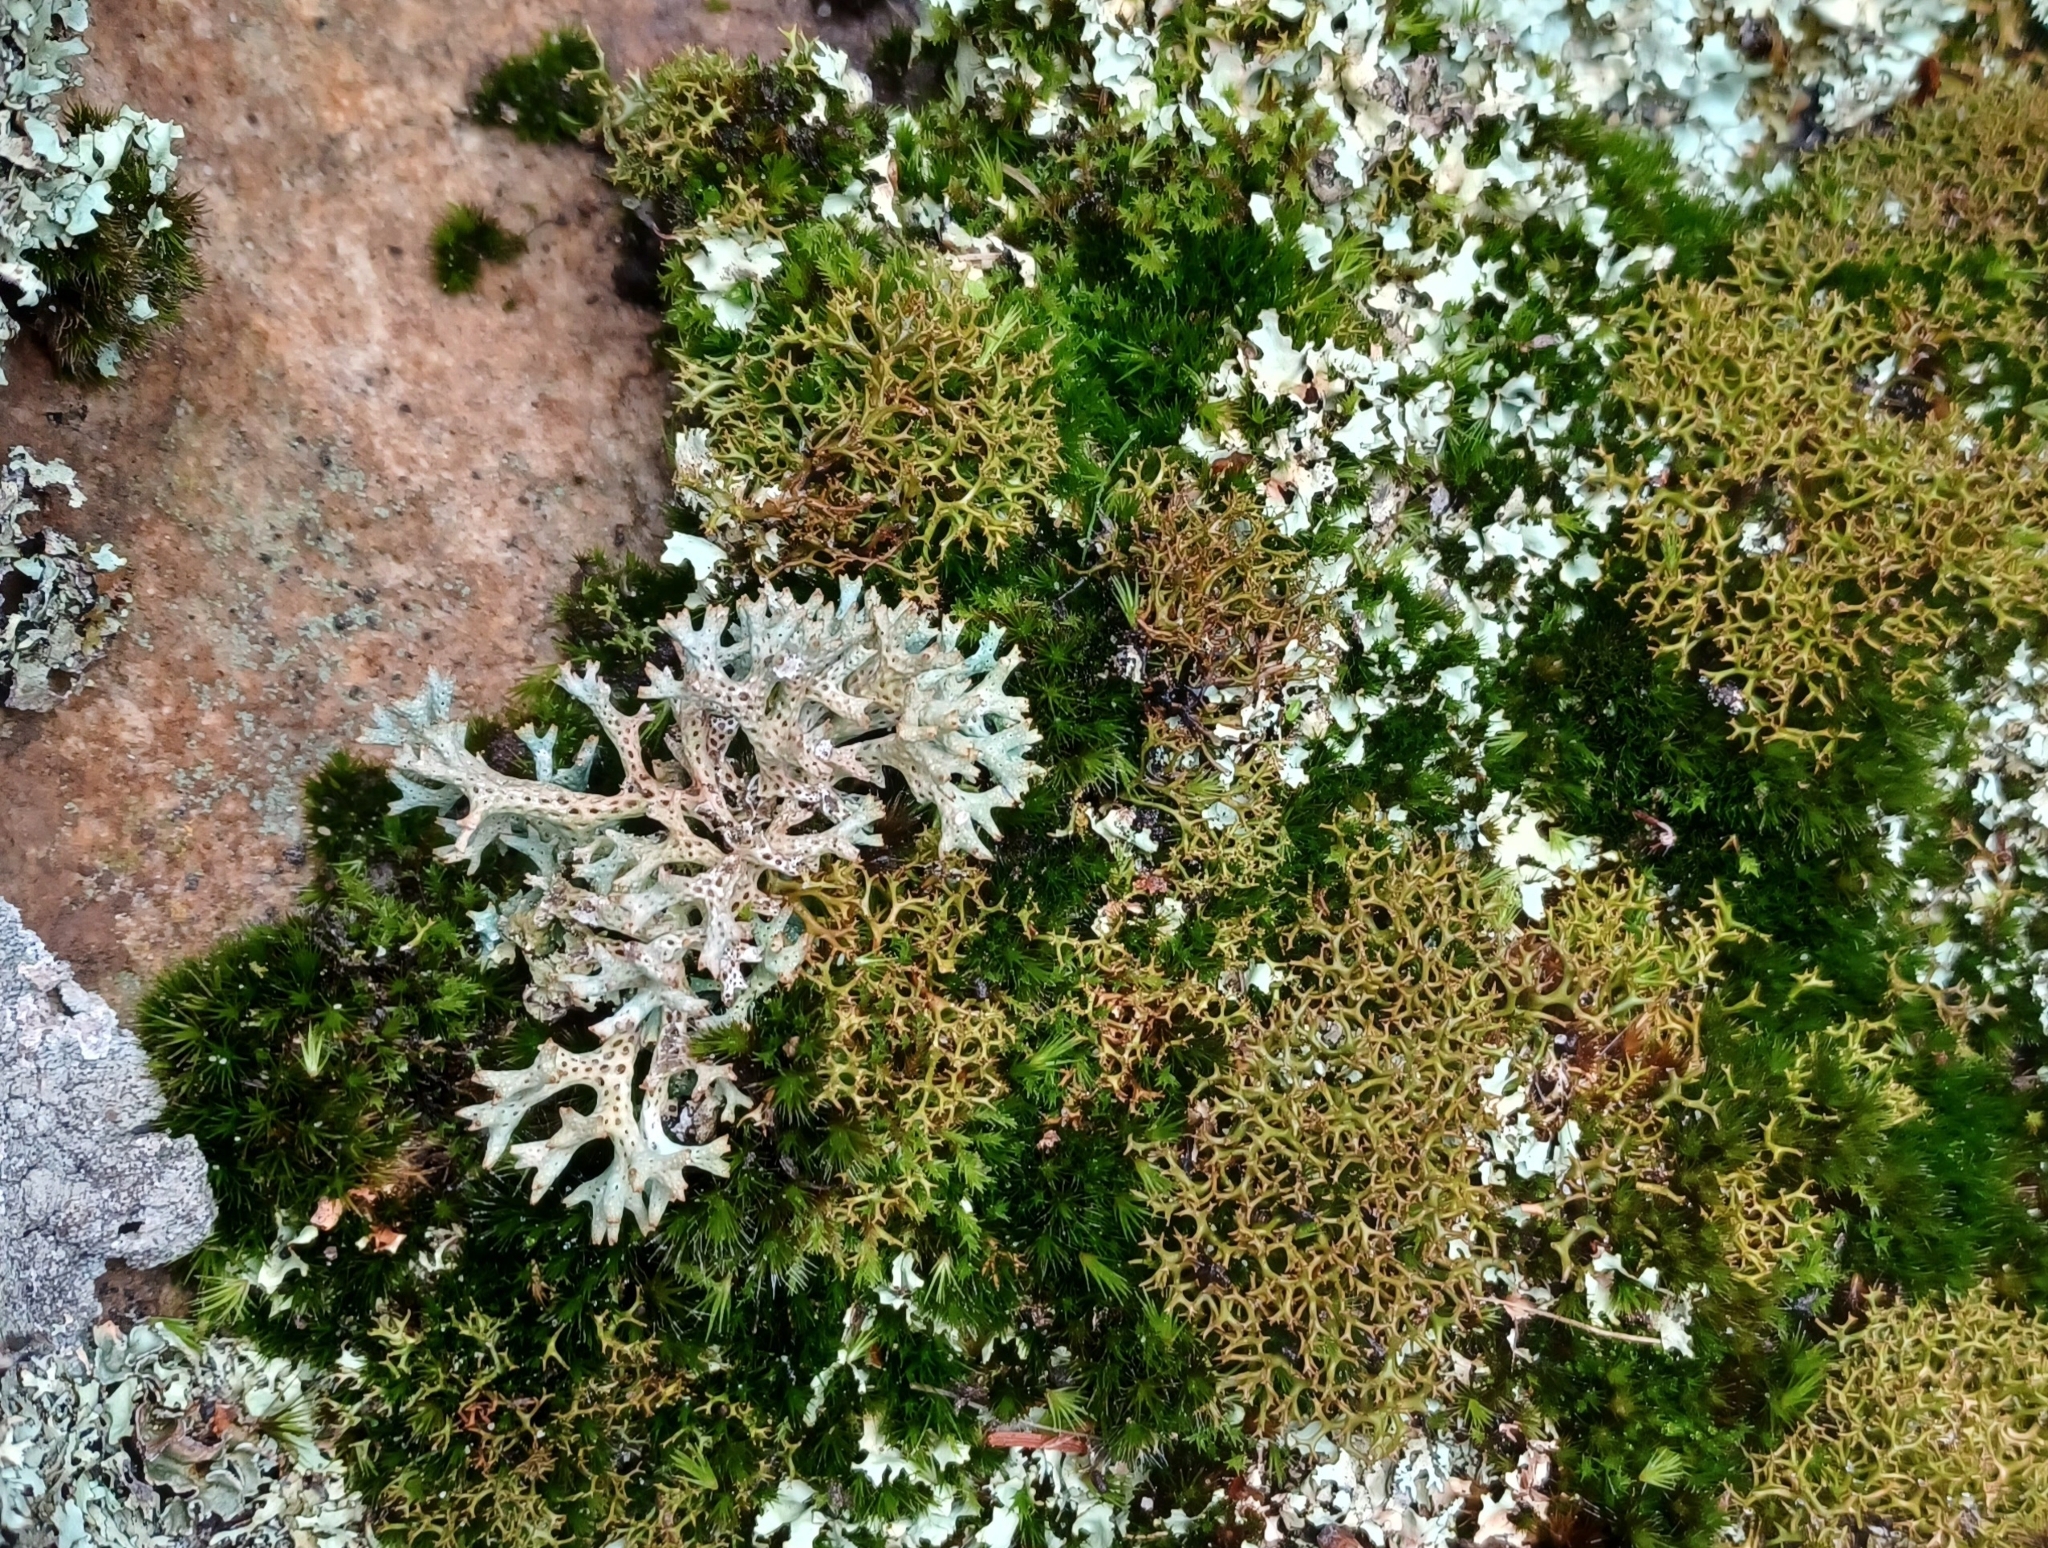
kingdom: Fungi
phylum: Ascomycota
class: Lecanoromycetes
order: Lecanorales
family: Cladoniaceae
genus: Pulchrocladia
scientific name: Pulchrocladia corallaizon
